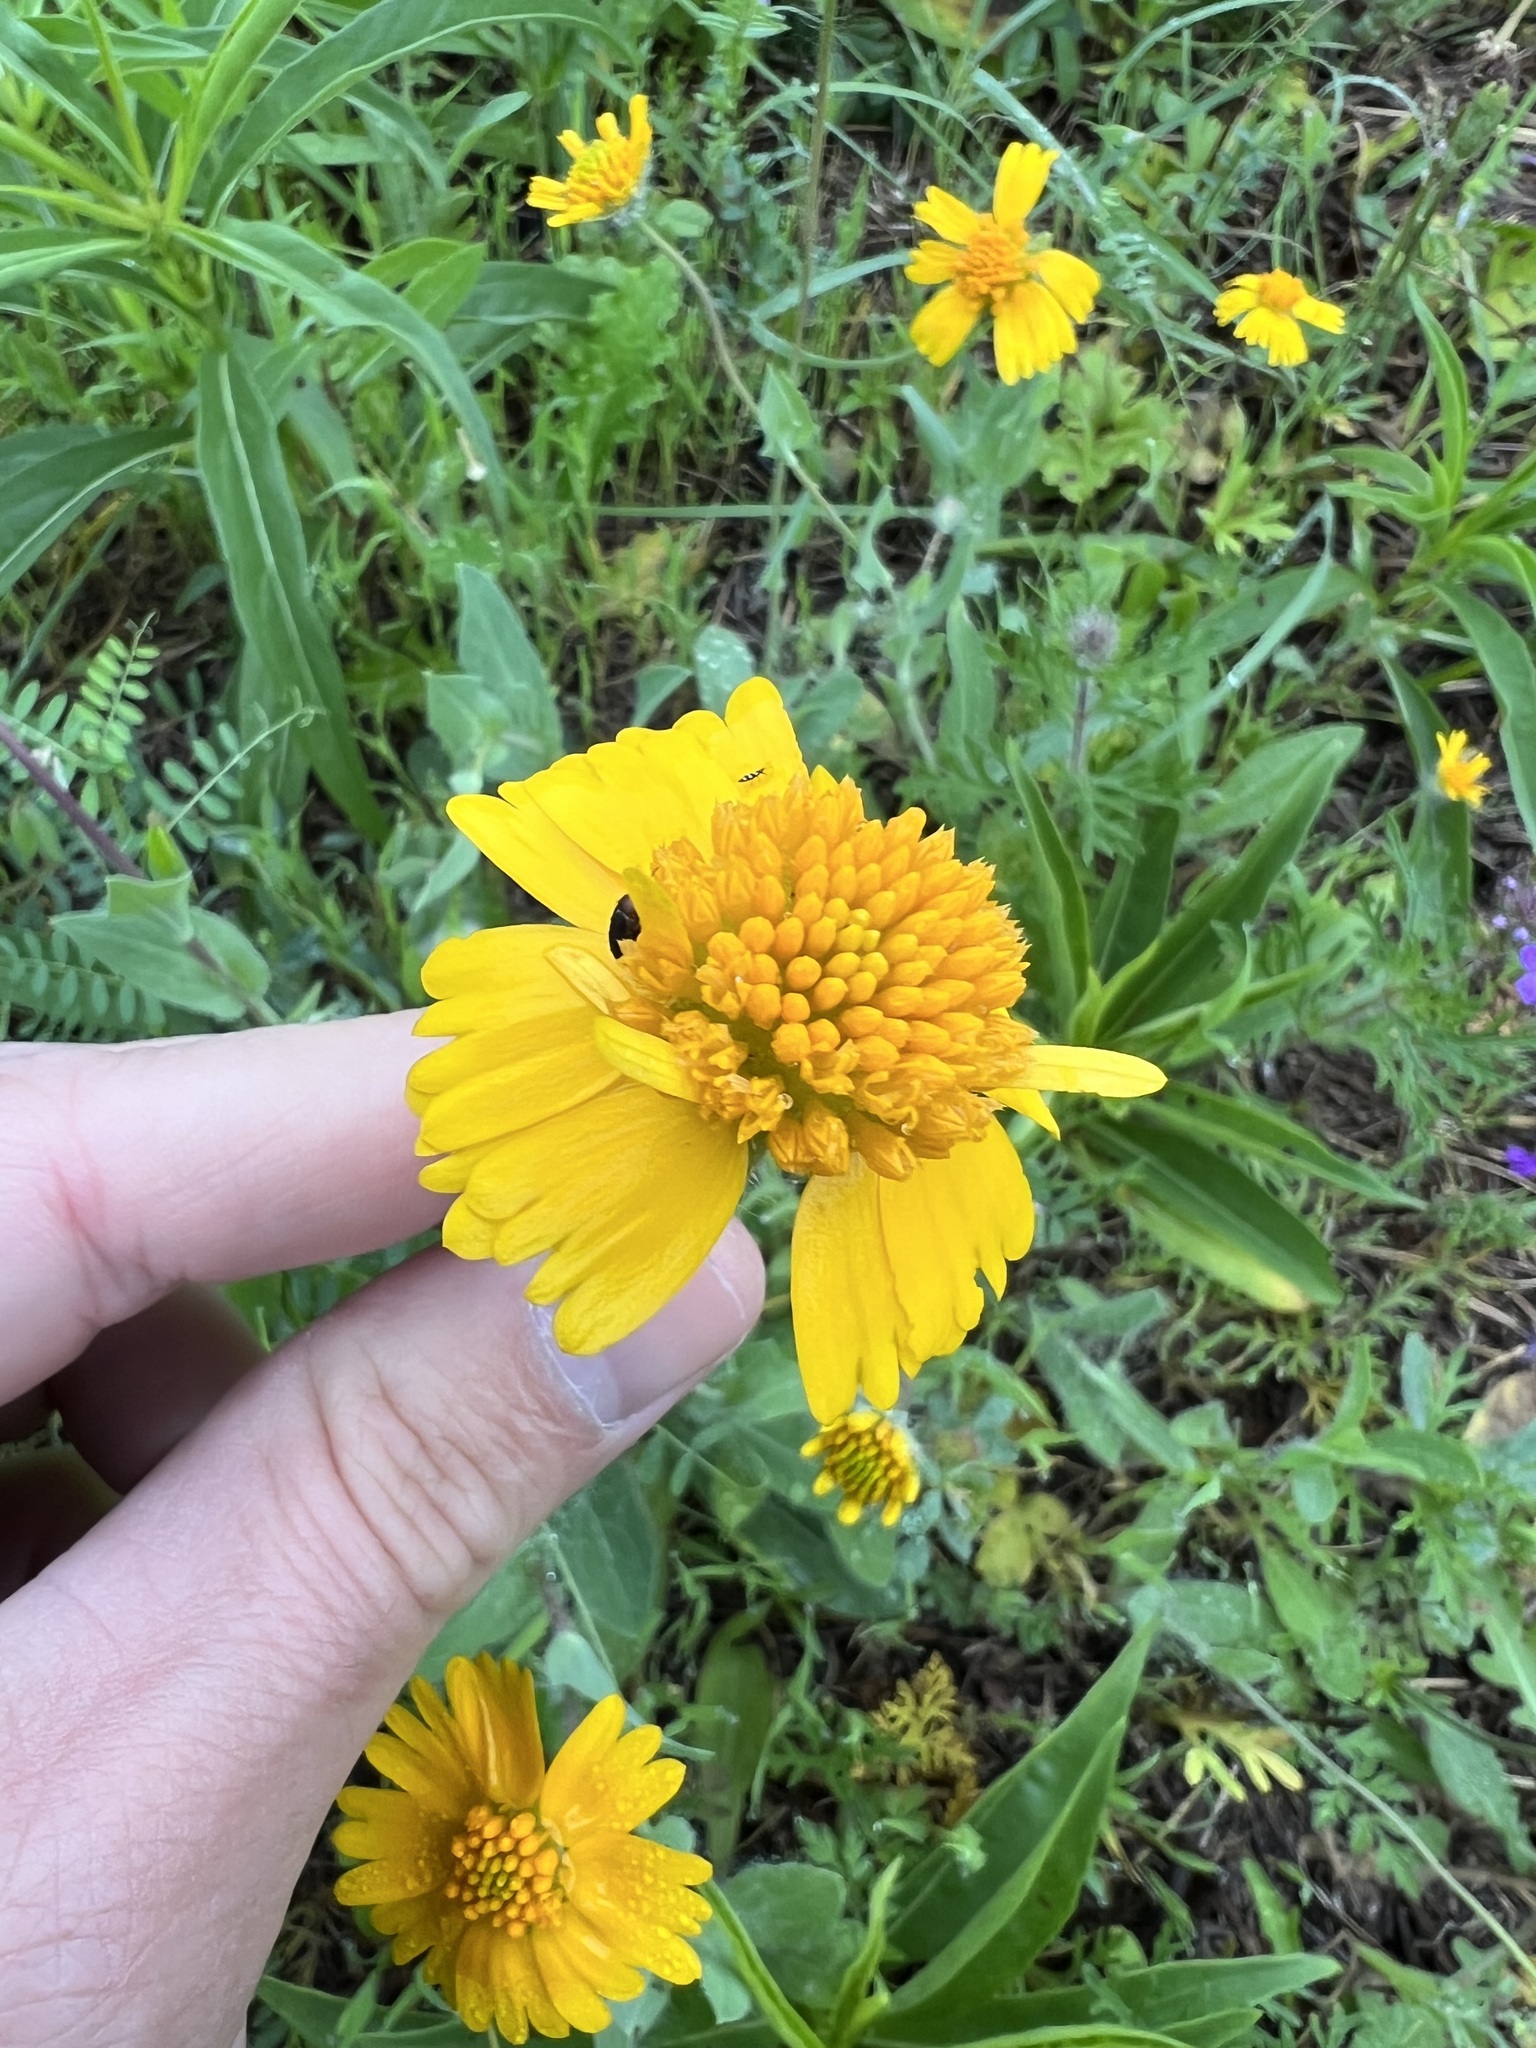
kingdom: Plantae
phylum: Tracheophyta
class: Magnoliopsida
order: Asterales
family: Asteraceae
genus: Amblyolepis
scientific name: Amblyolepis setigera
